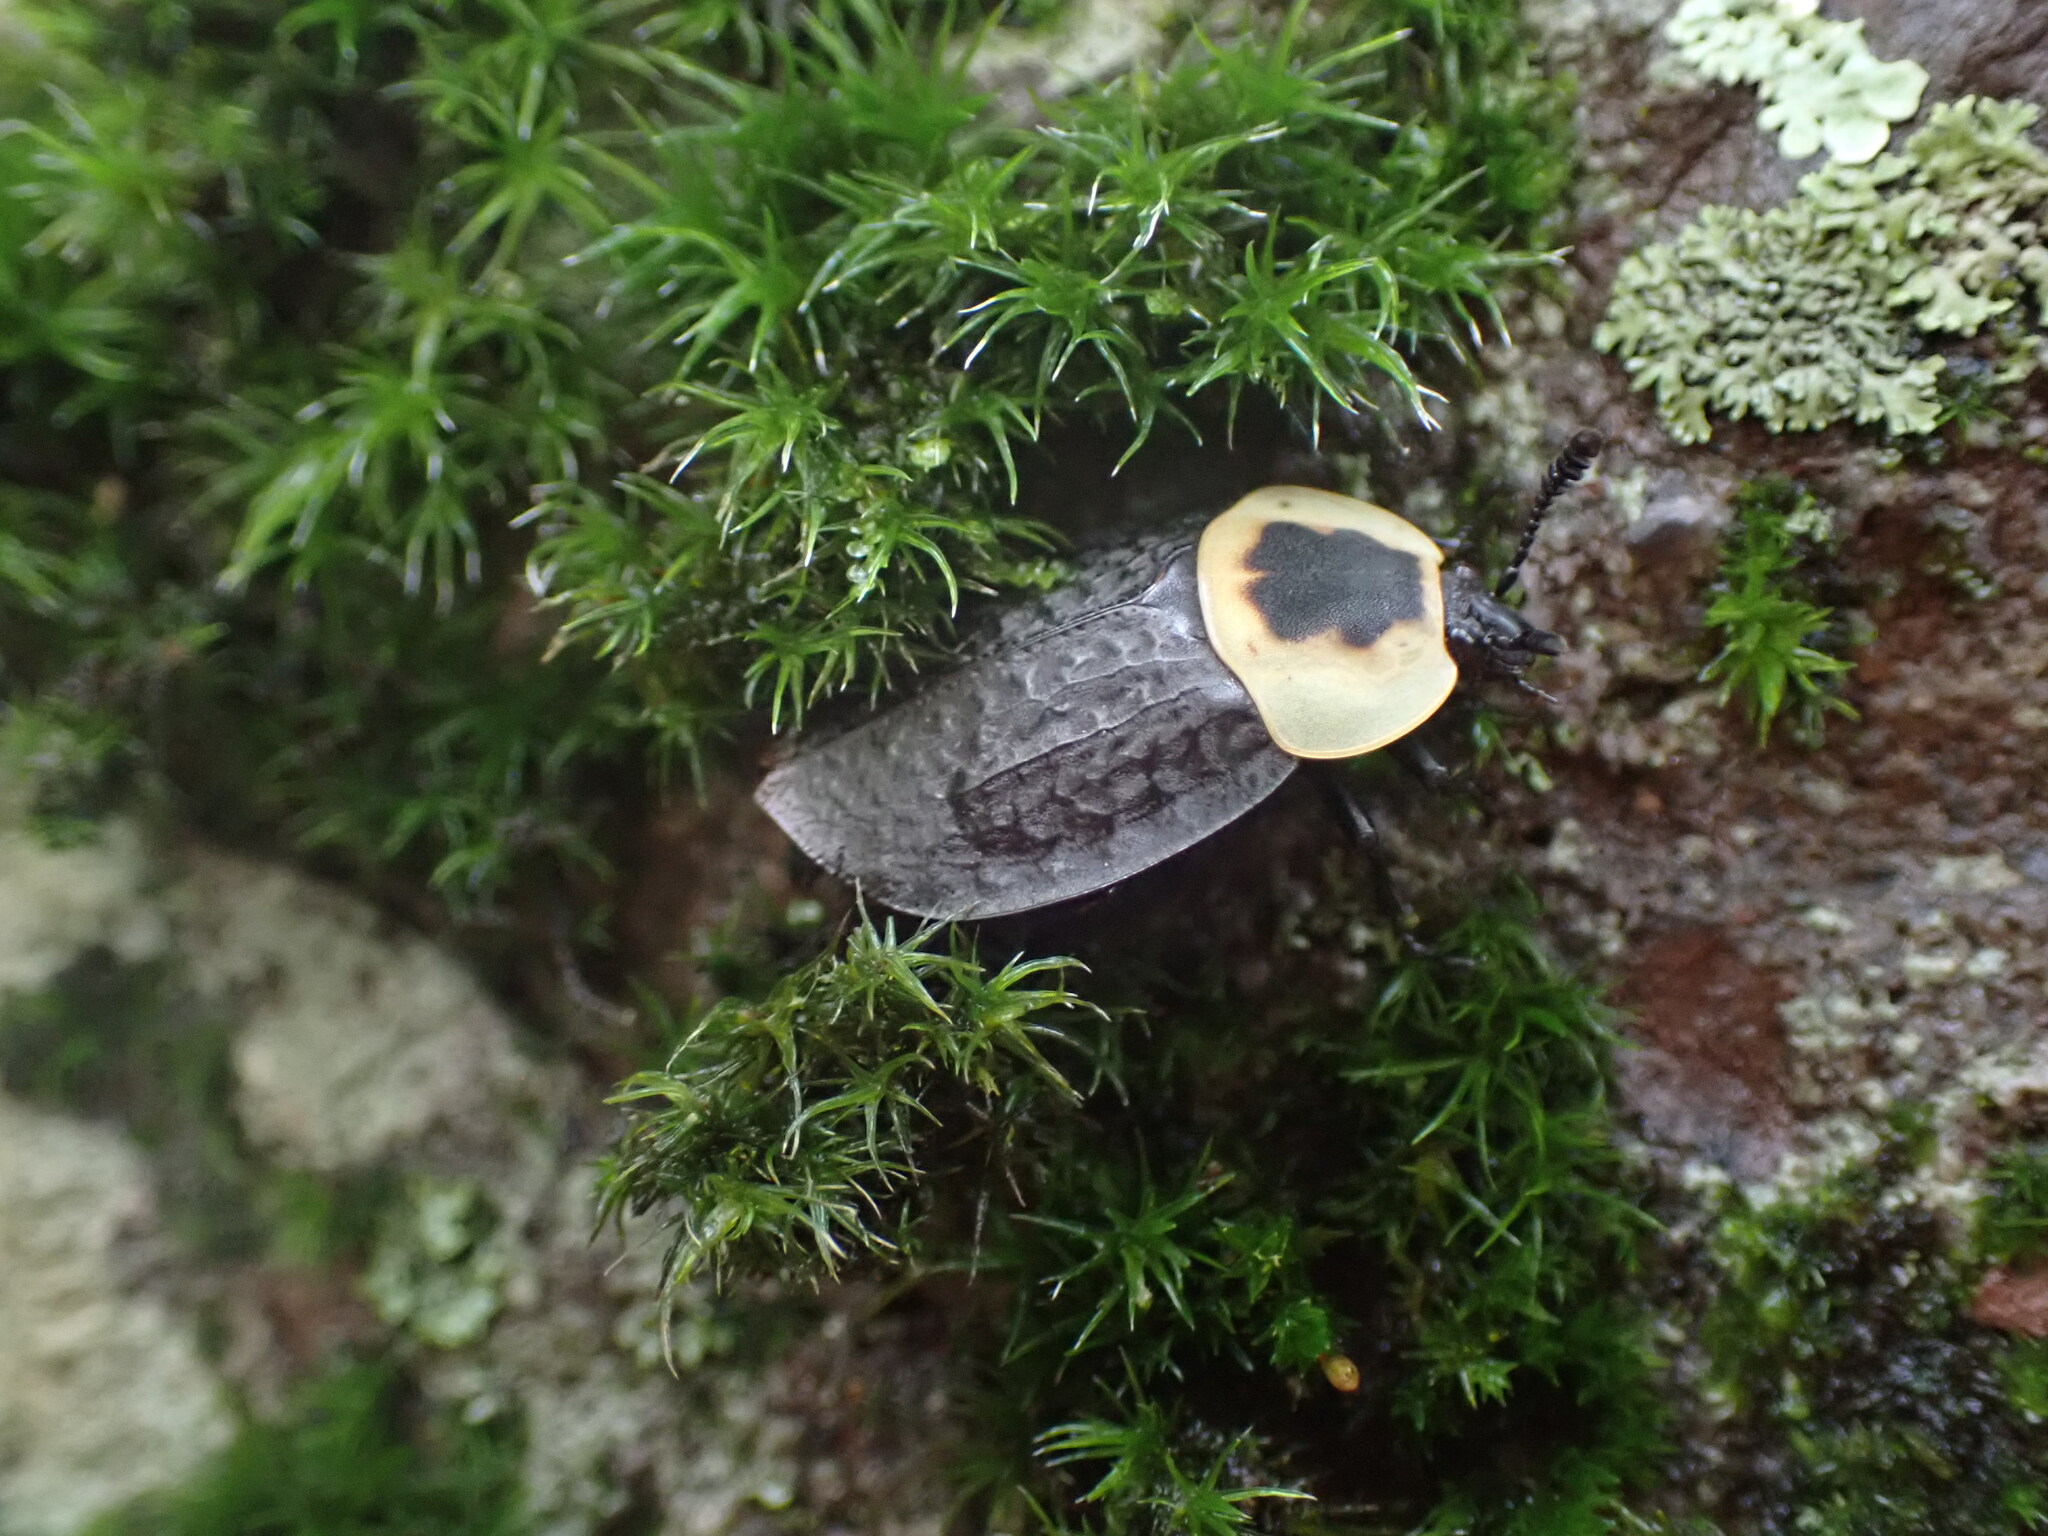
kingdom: Animalia
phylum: Arthropoda
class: Insecta
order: Coleoptera
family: Staphylinidae
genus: Necrophila
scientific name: Necrophila americana
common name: American carrion beetle
